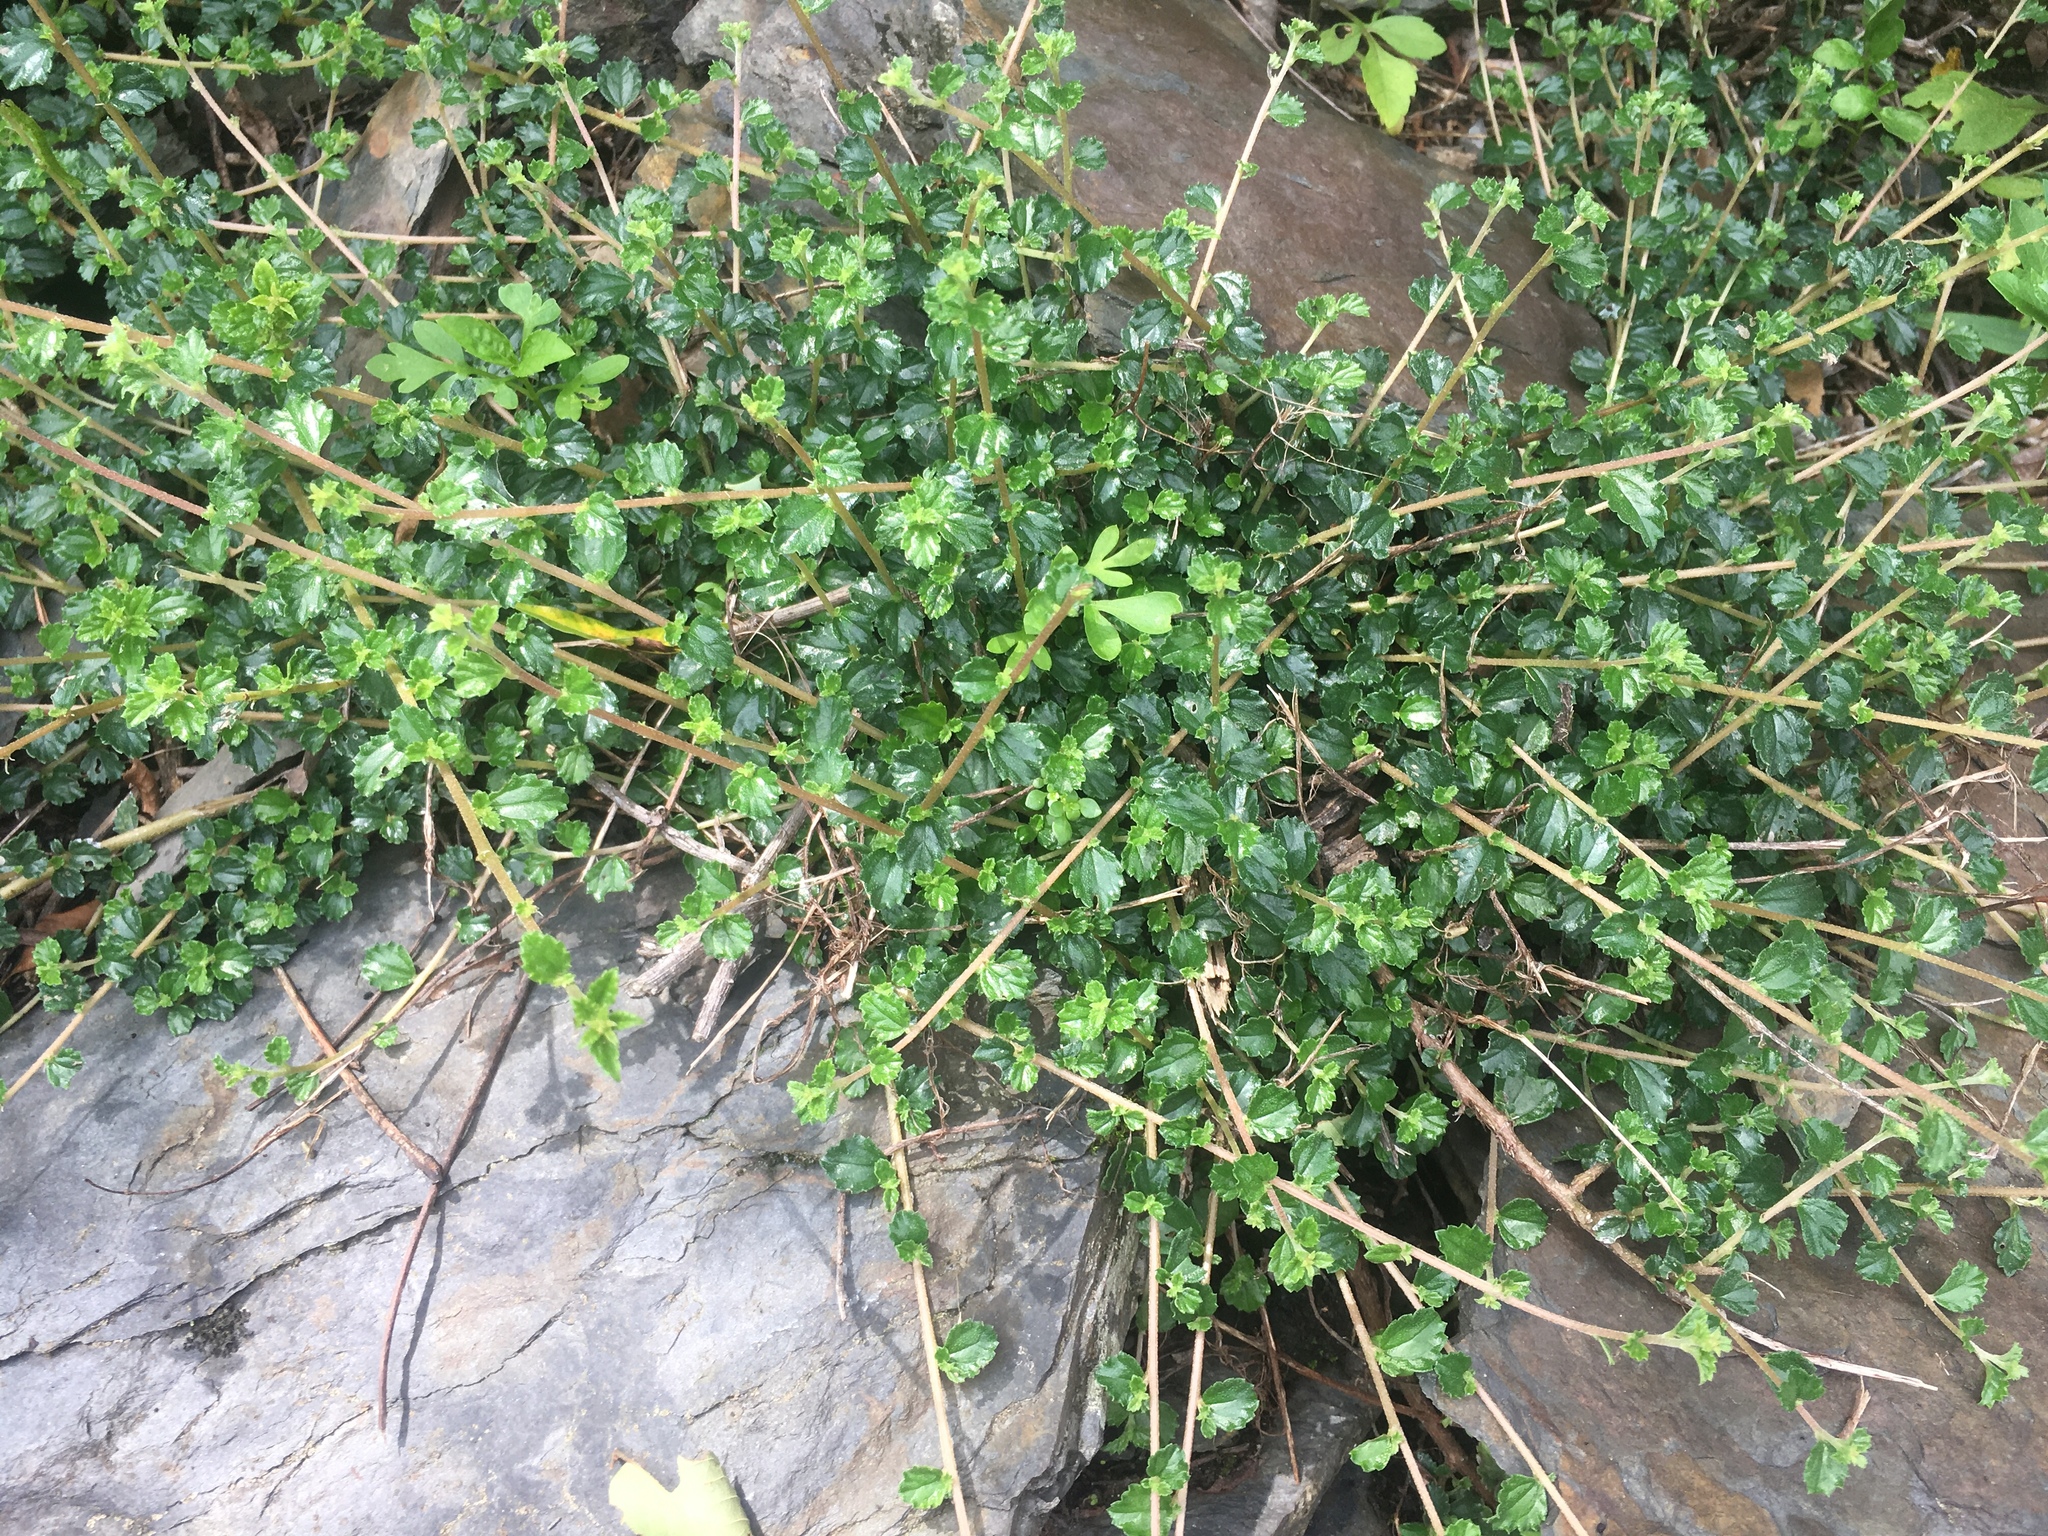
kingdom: Plantae
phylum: Tracheophyta
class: Magnoliopsida
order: Rosales
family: Urticaceae
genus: Pouzolzia
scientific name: Pouzolzia sanguinea
